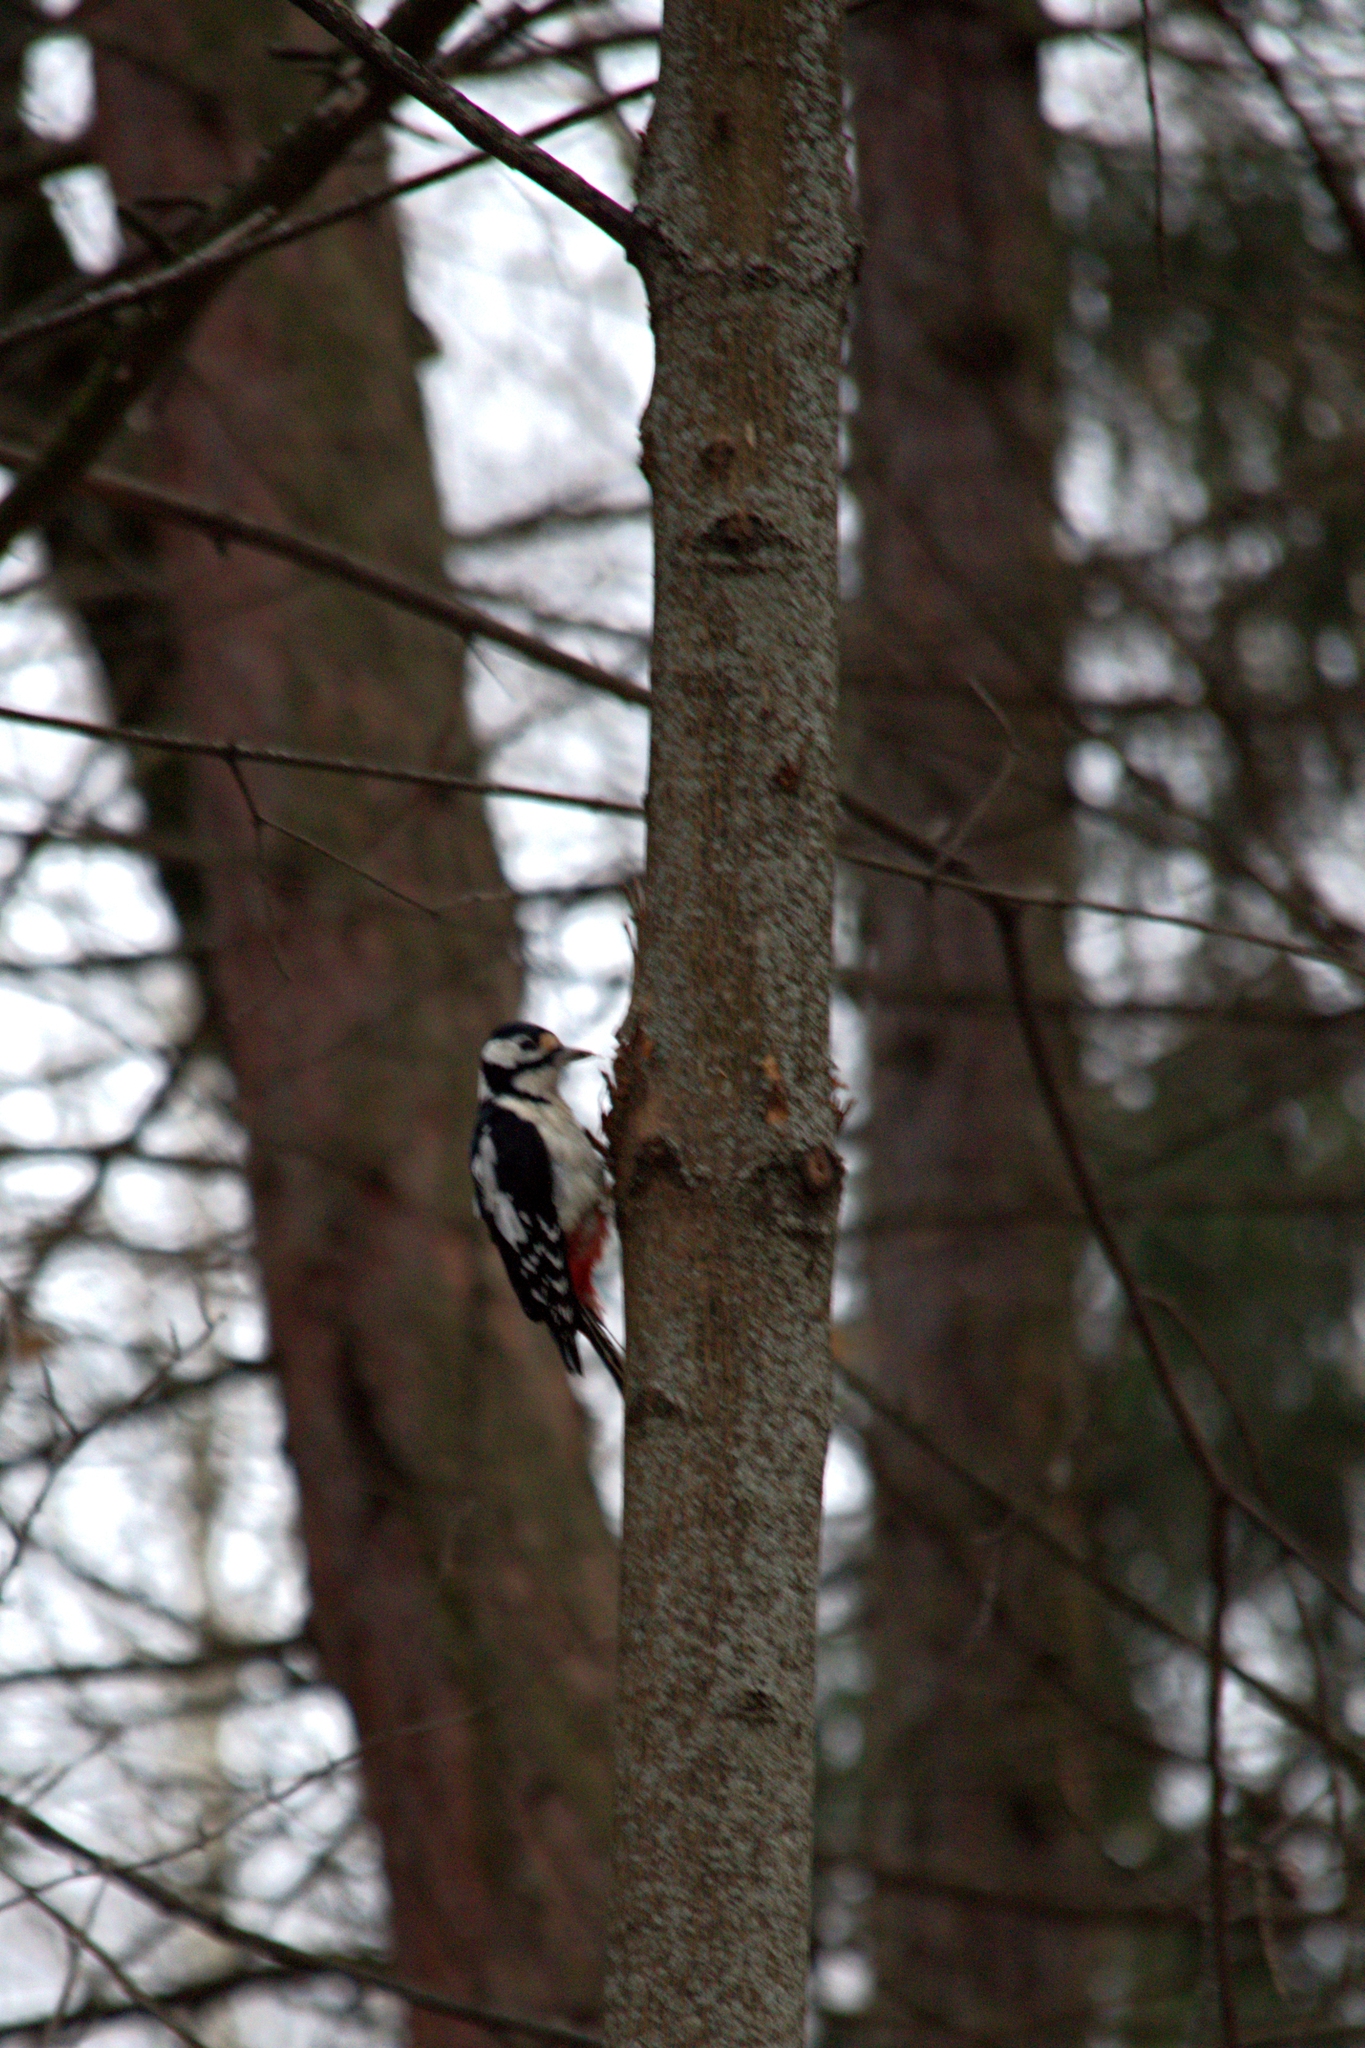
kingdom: Animalia
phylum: Chordata
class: Aves
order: Piciformes
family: Picidae
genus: Dendrocopos
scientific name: Dendrocopos major
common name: Great spotted woodpecker
